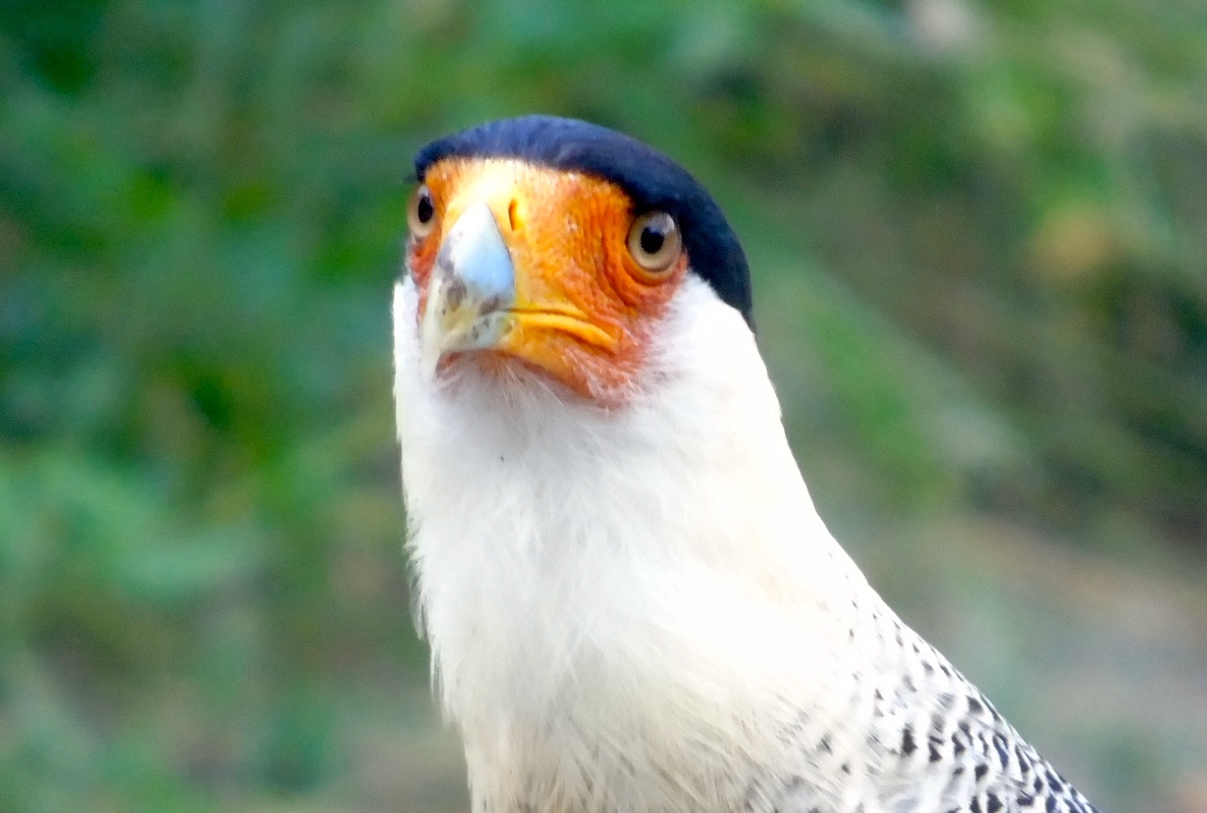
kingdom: Animalia
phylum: Chordata
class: Aves
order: Falconiformes
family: Falconidae
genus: Caracara
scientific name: Caracara plancus
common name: Southern caracara
